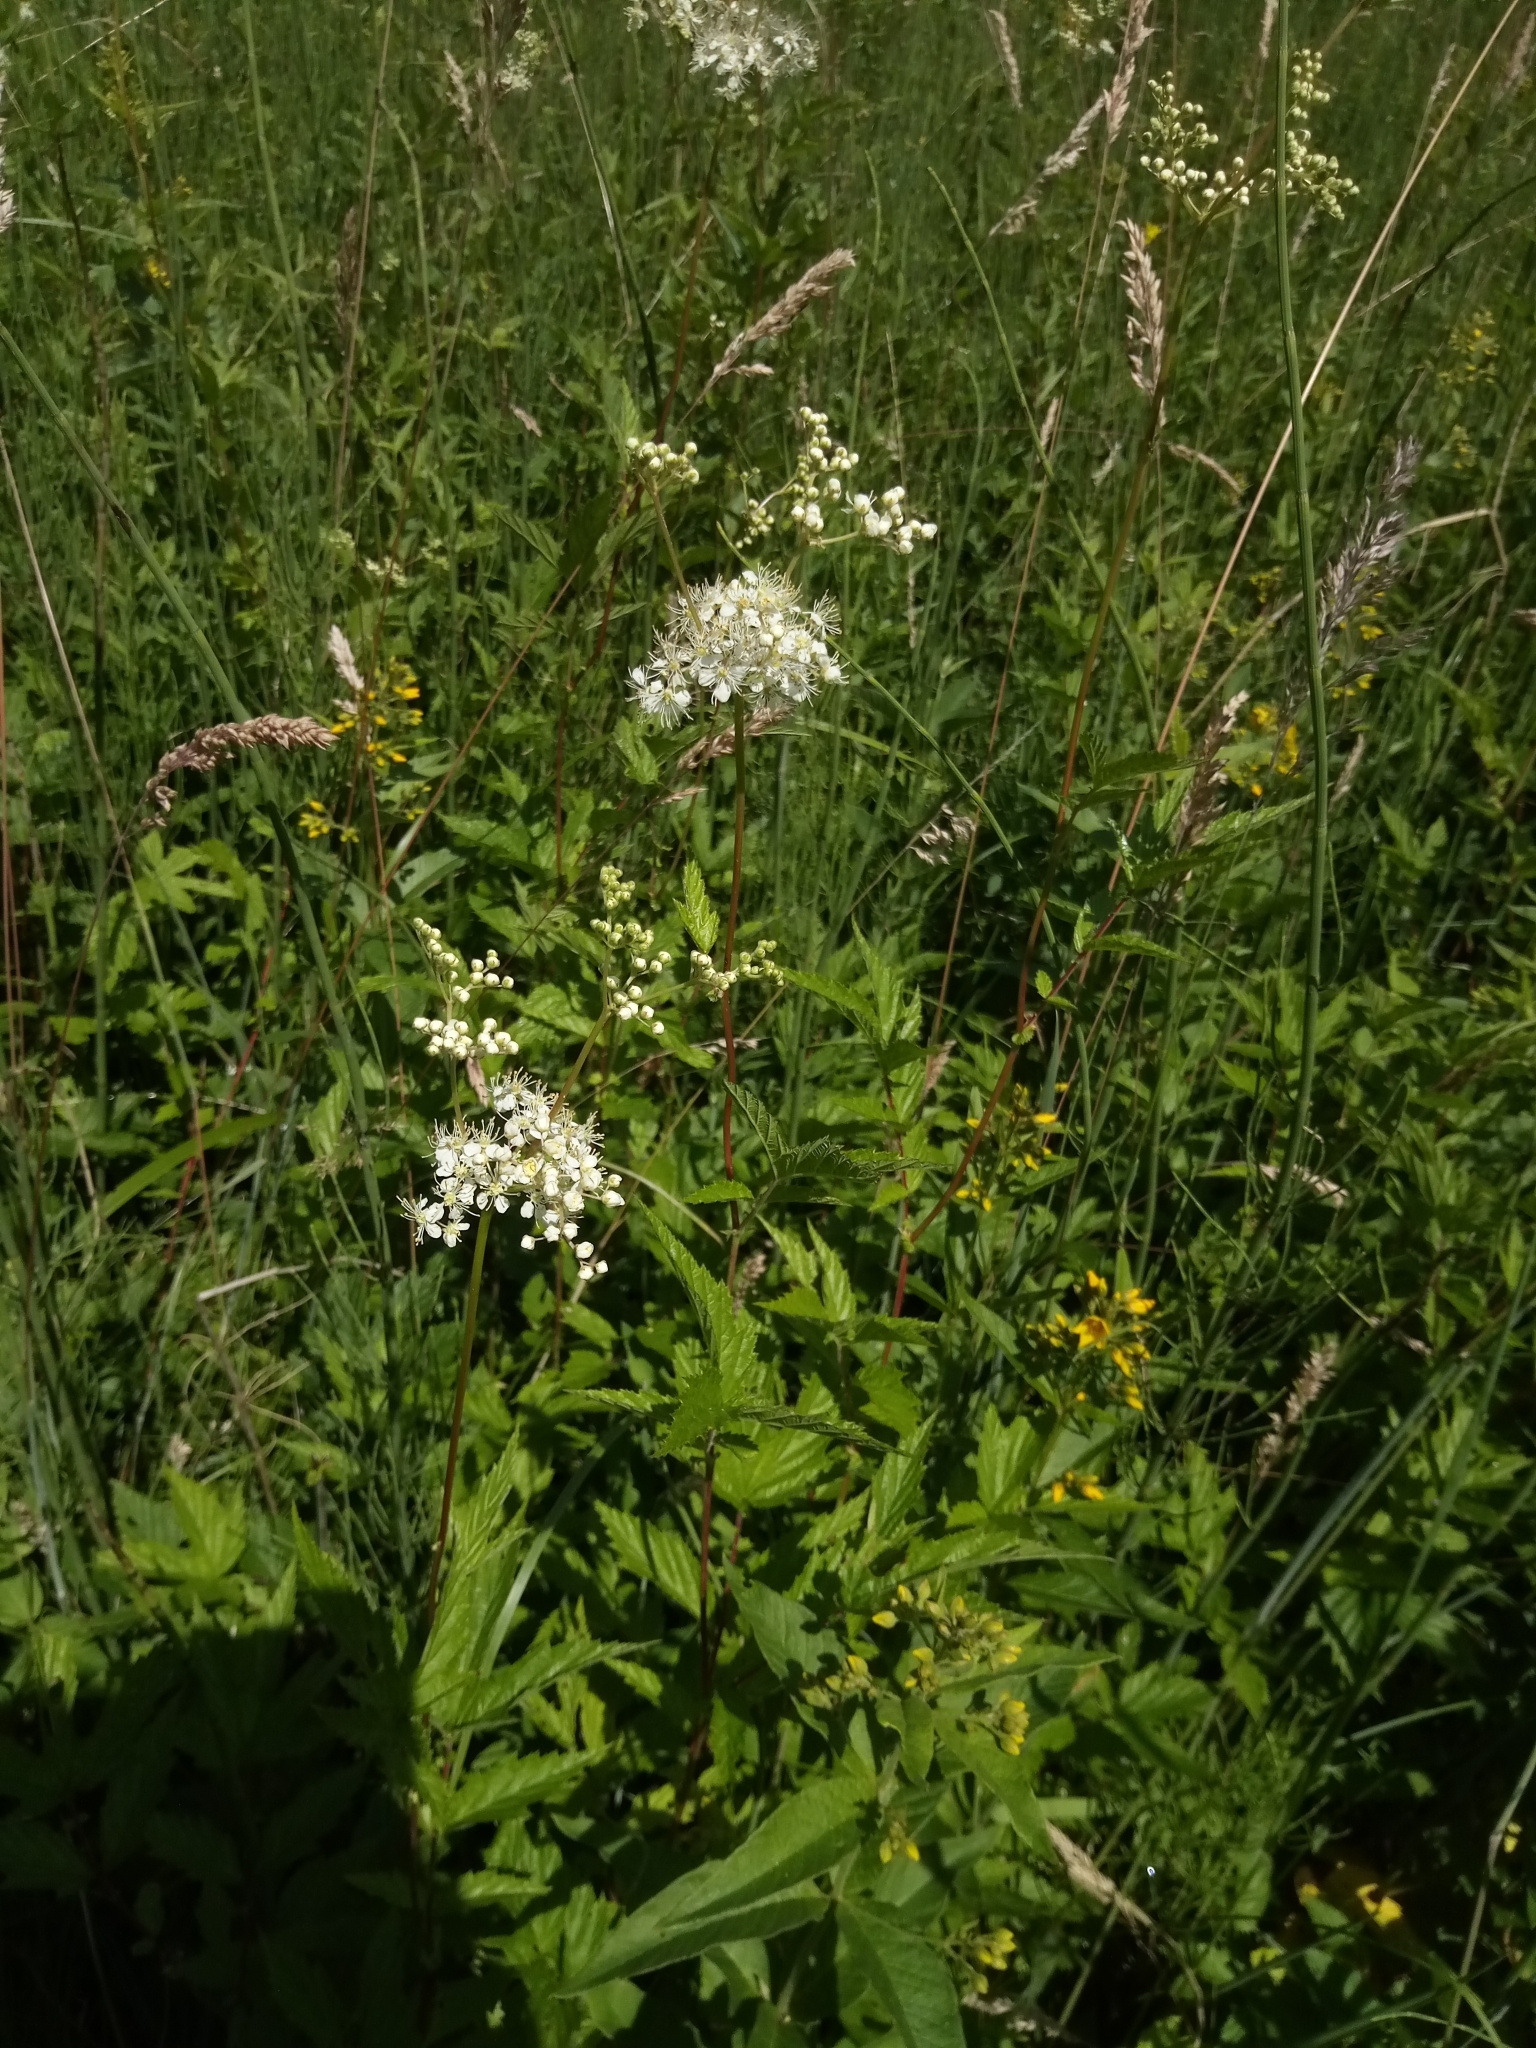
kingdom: Plantae
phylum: Tracheophyta
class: Magnoliopsida
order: Rosales
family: Rosaceae
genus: Filipendula
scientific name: Filipendula ulmaria
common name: Meadowsweet
